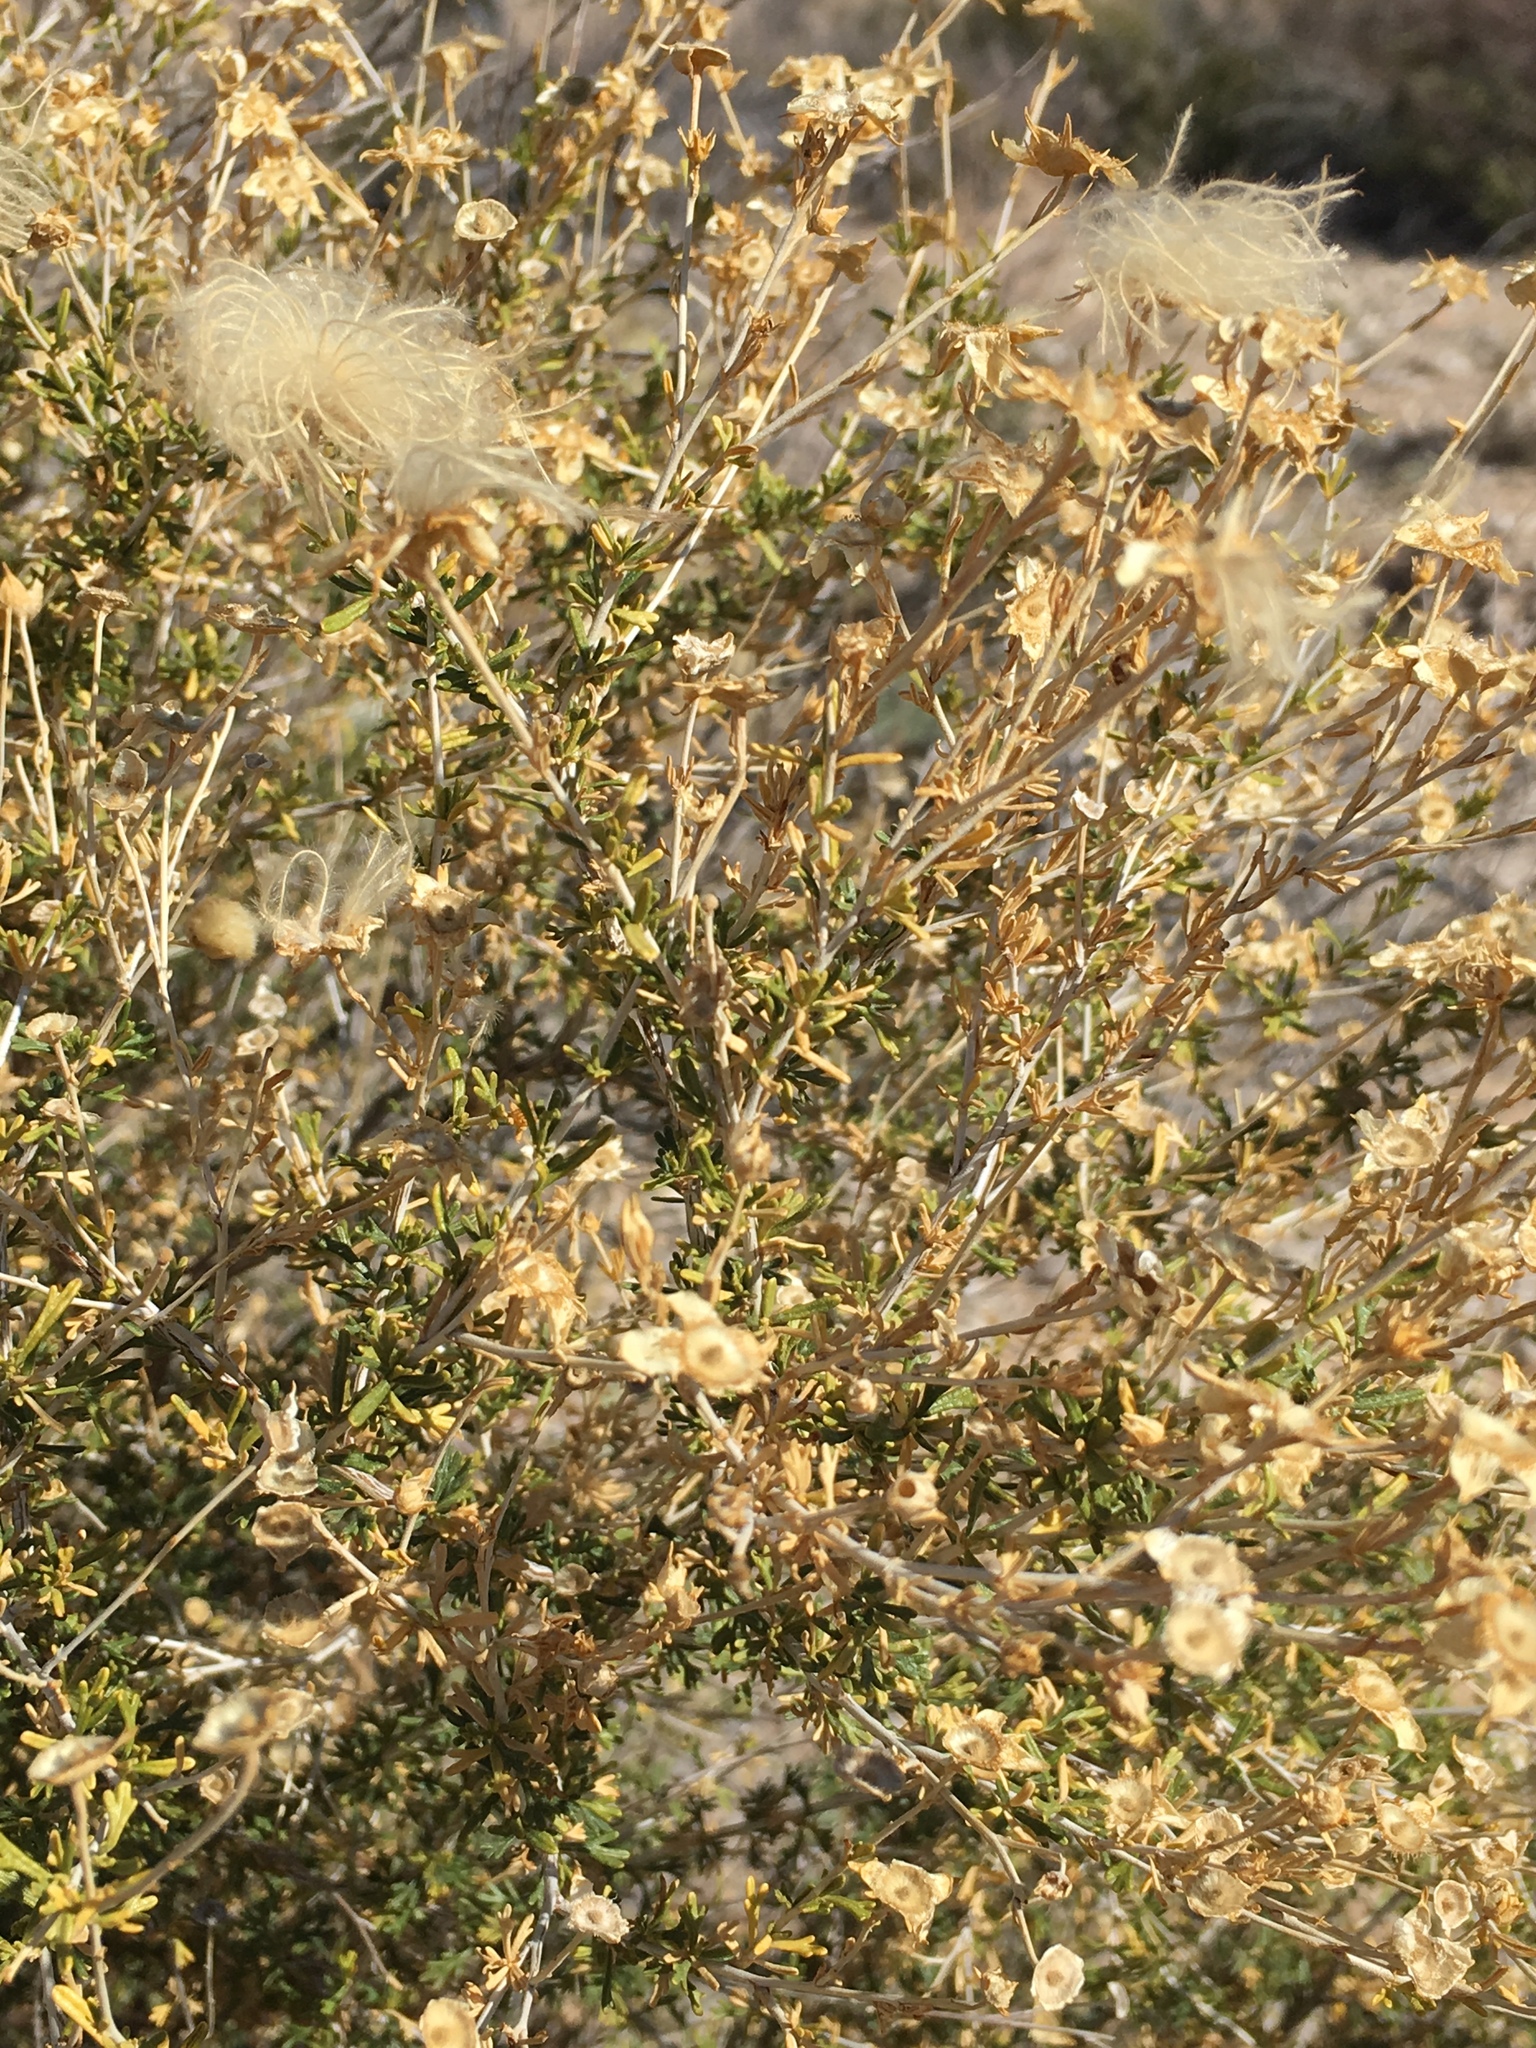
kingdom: Plantae
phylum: Tracheophyta
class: Magnoliopsida
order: Rosales
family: Rosaceae
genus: Fallugia
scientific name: Fallugia paradoxa
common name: Apache-plume
